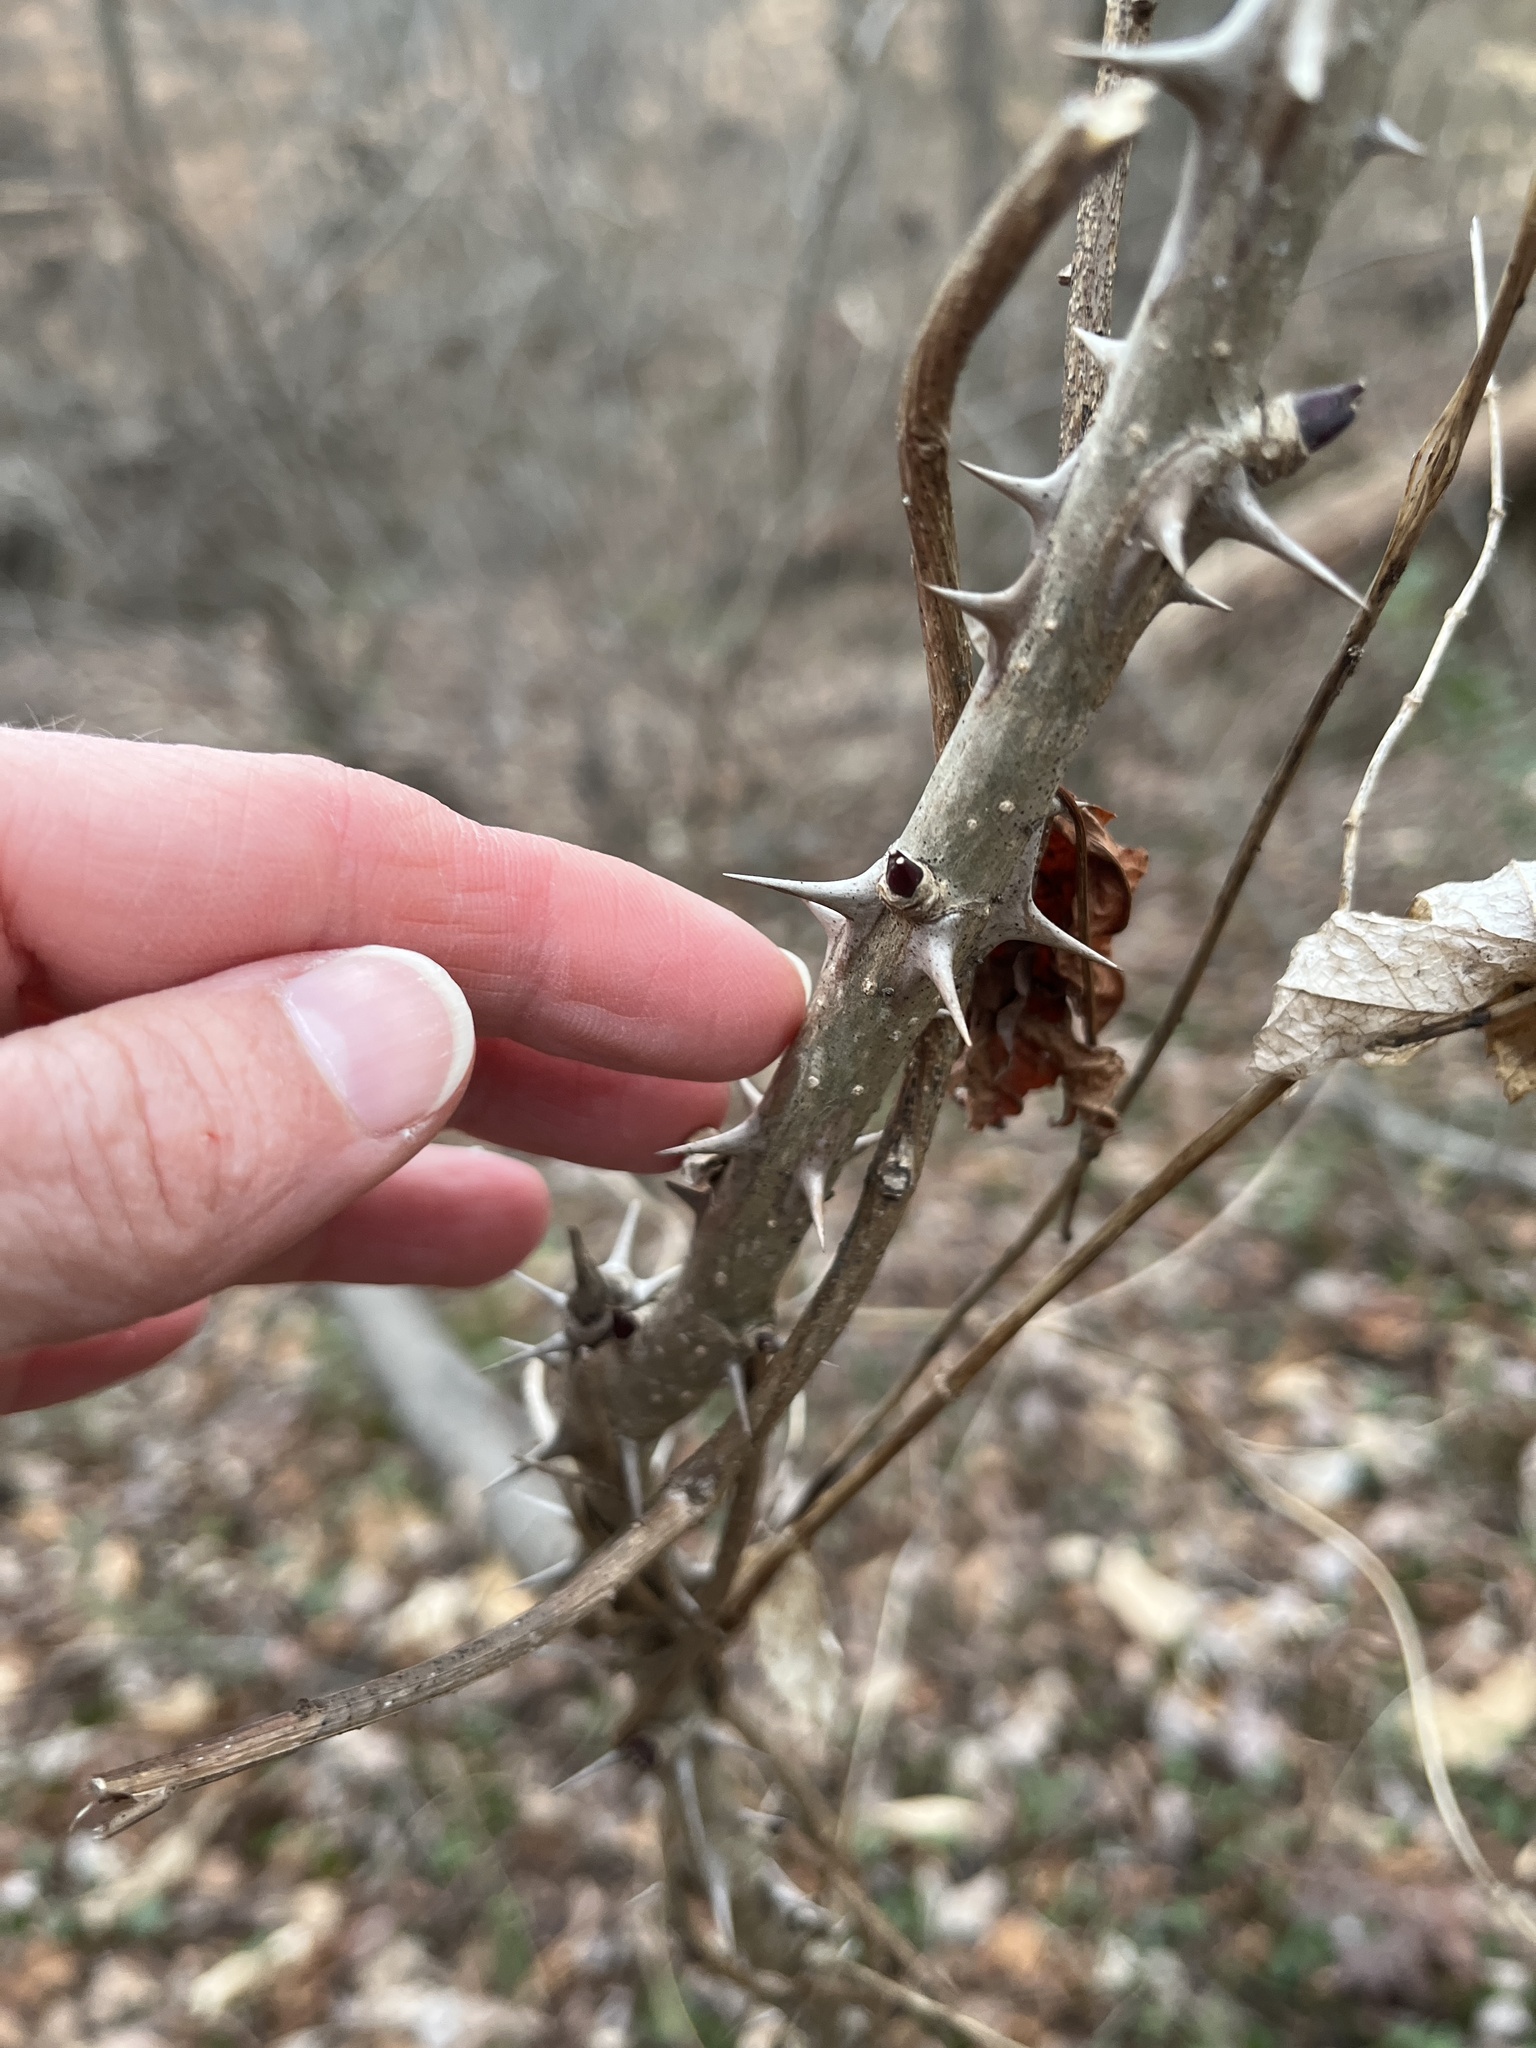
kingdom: Plantae
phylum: Tracheophyta
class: Magnoliopsida
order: Apiales
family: Araliaceae
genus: Kalopanax
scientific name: Kalopanax septemlobus
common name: Castor aralia
